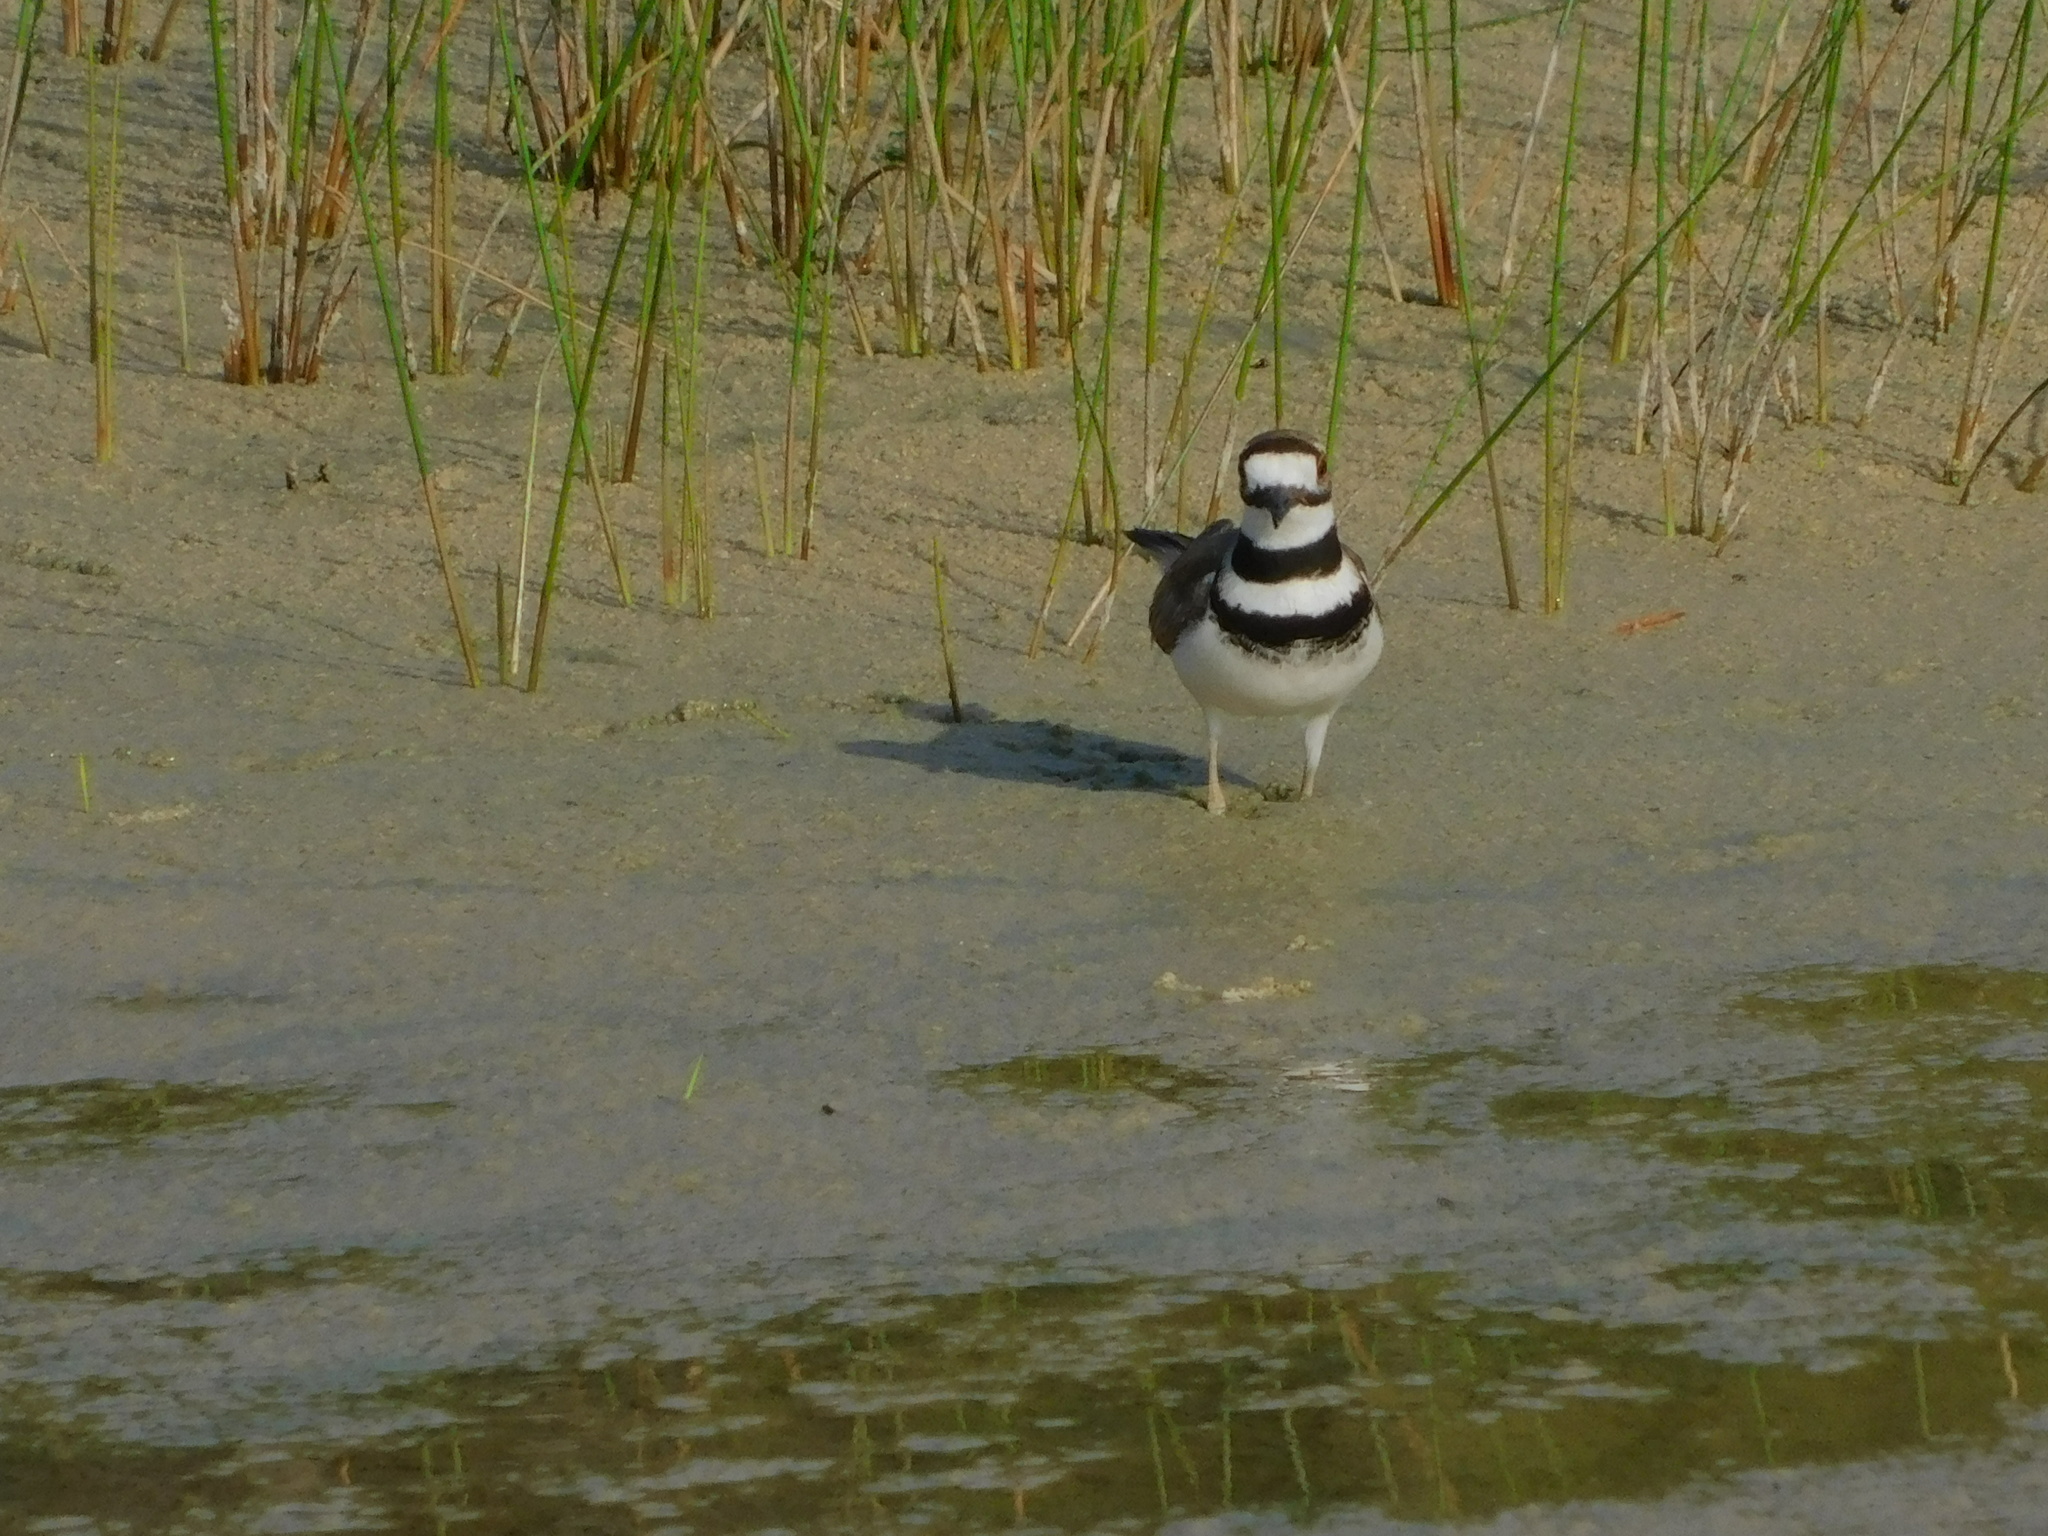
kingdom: Animalia
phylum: Chordata
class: Aves
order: Charadriiformes
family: Charadriidae
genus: Charadrius
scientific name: Charadrius vociferus
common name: Killdeer
